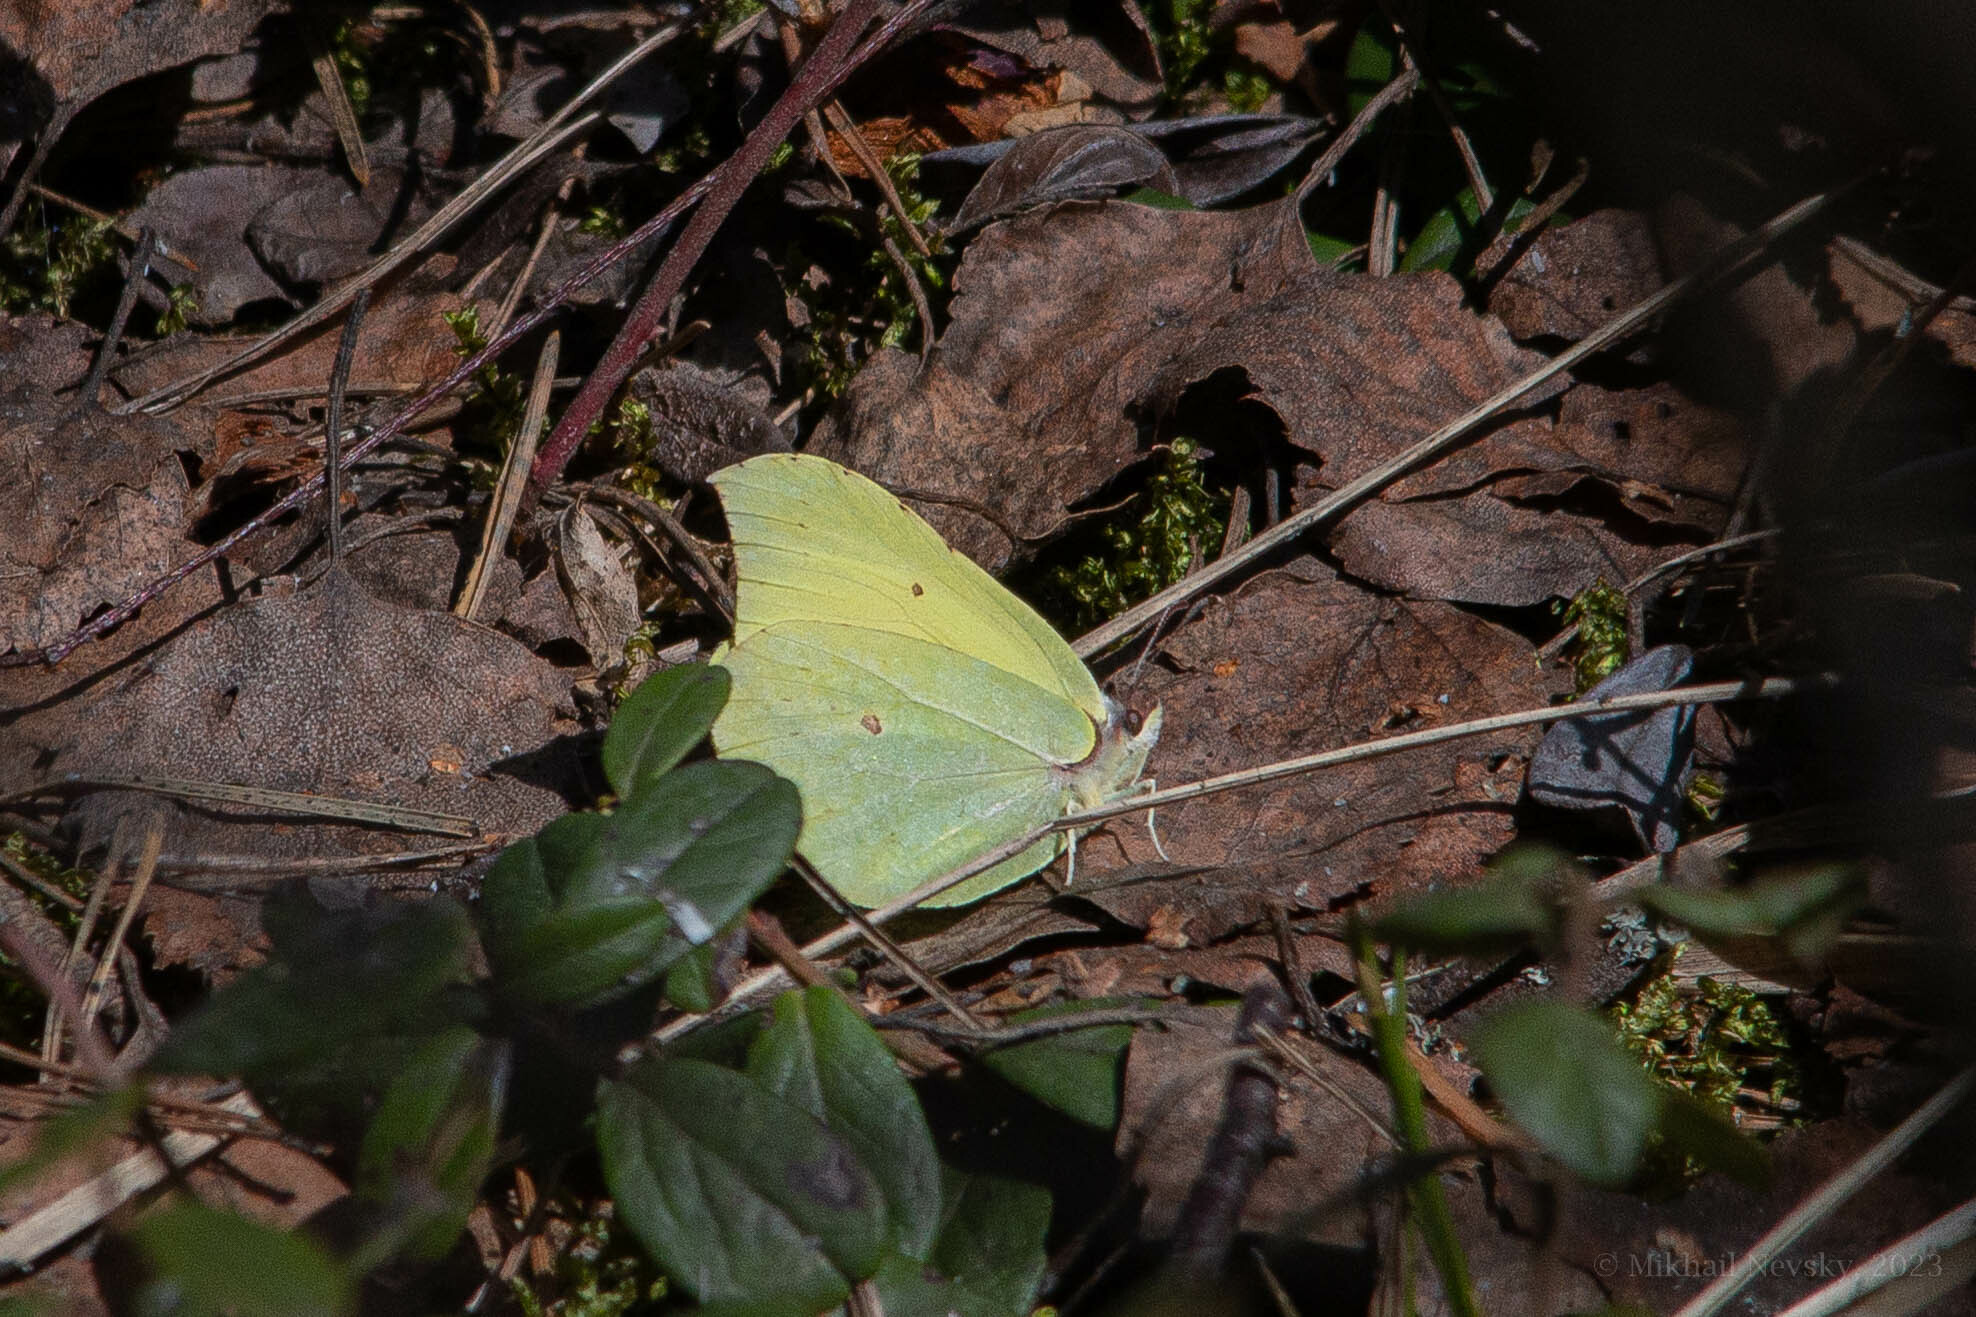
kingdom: Animalia
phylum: Arthropoda
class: Insecta
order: Lepidoptera
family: Pieridae
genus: Gonepteryx
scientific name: Gonepteryx rhamni
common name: Brimstone
